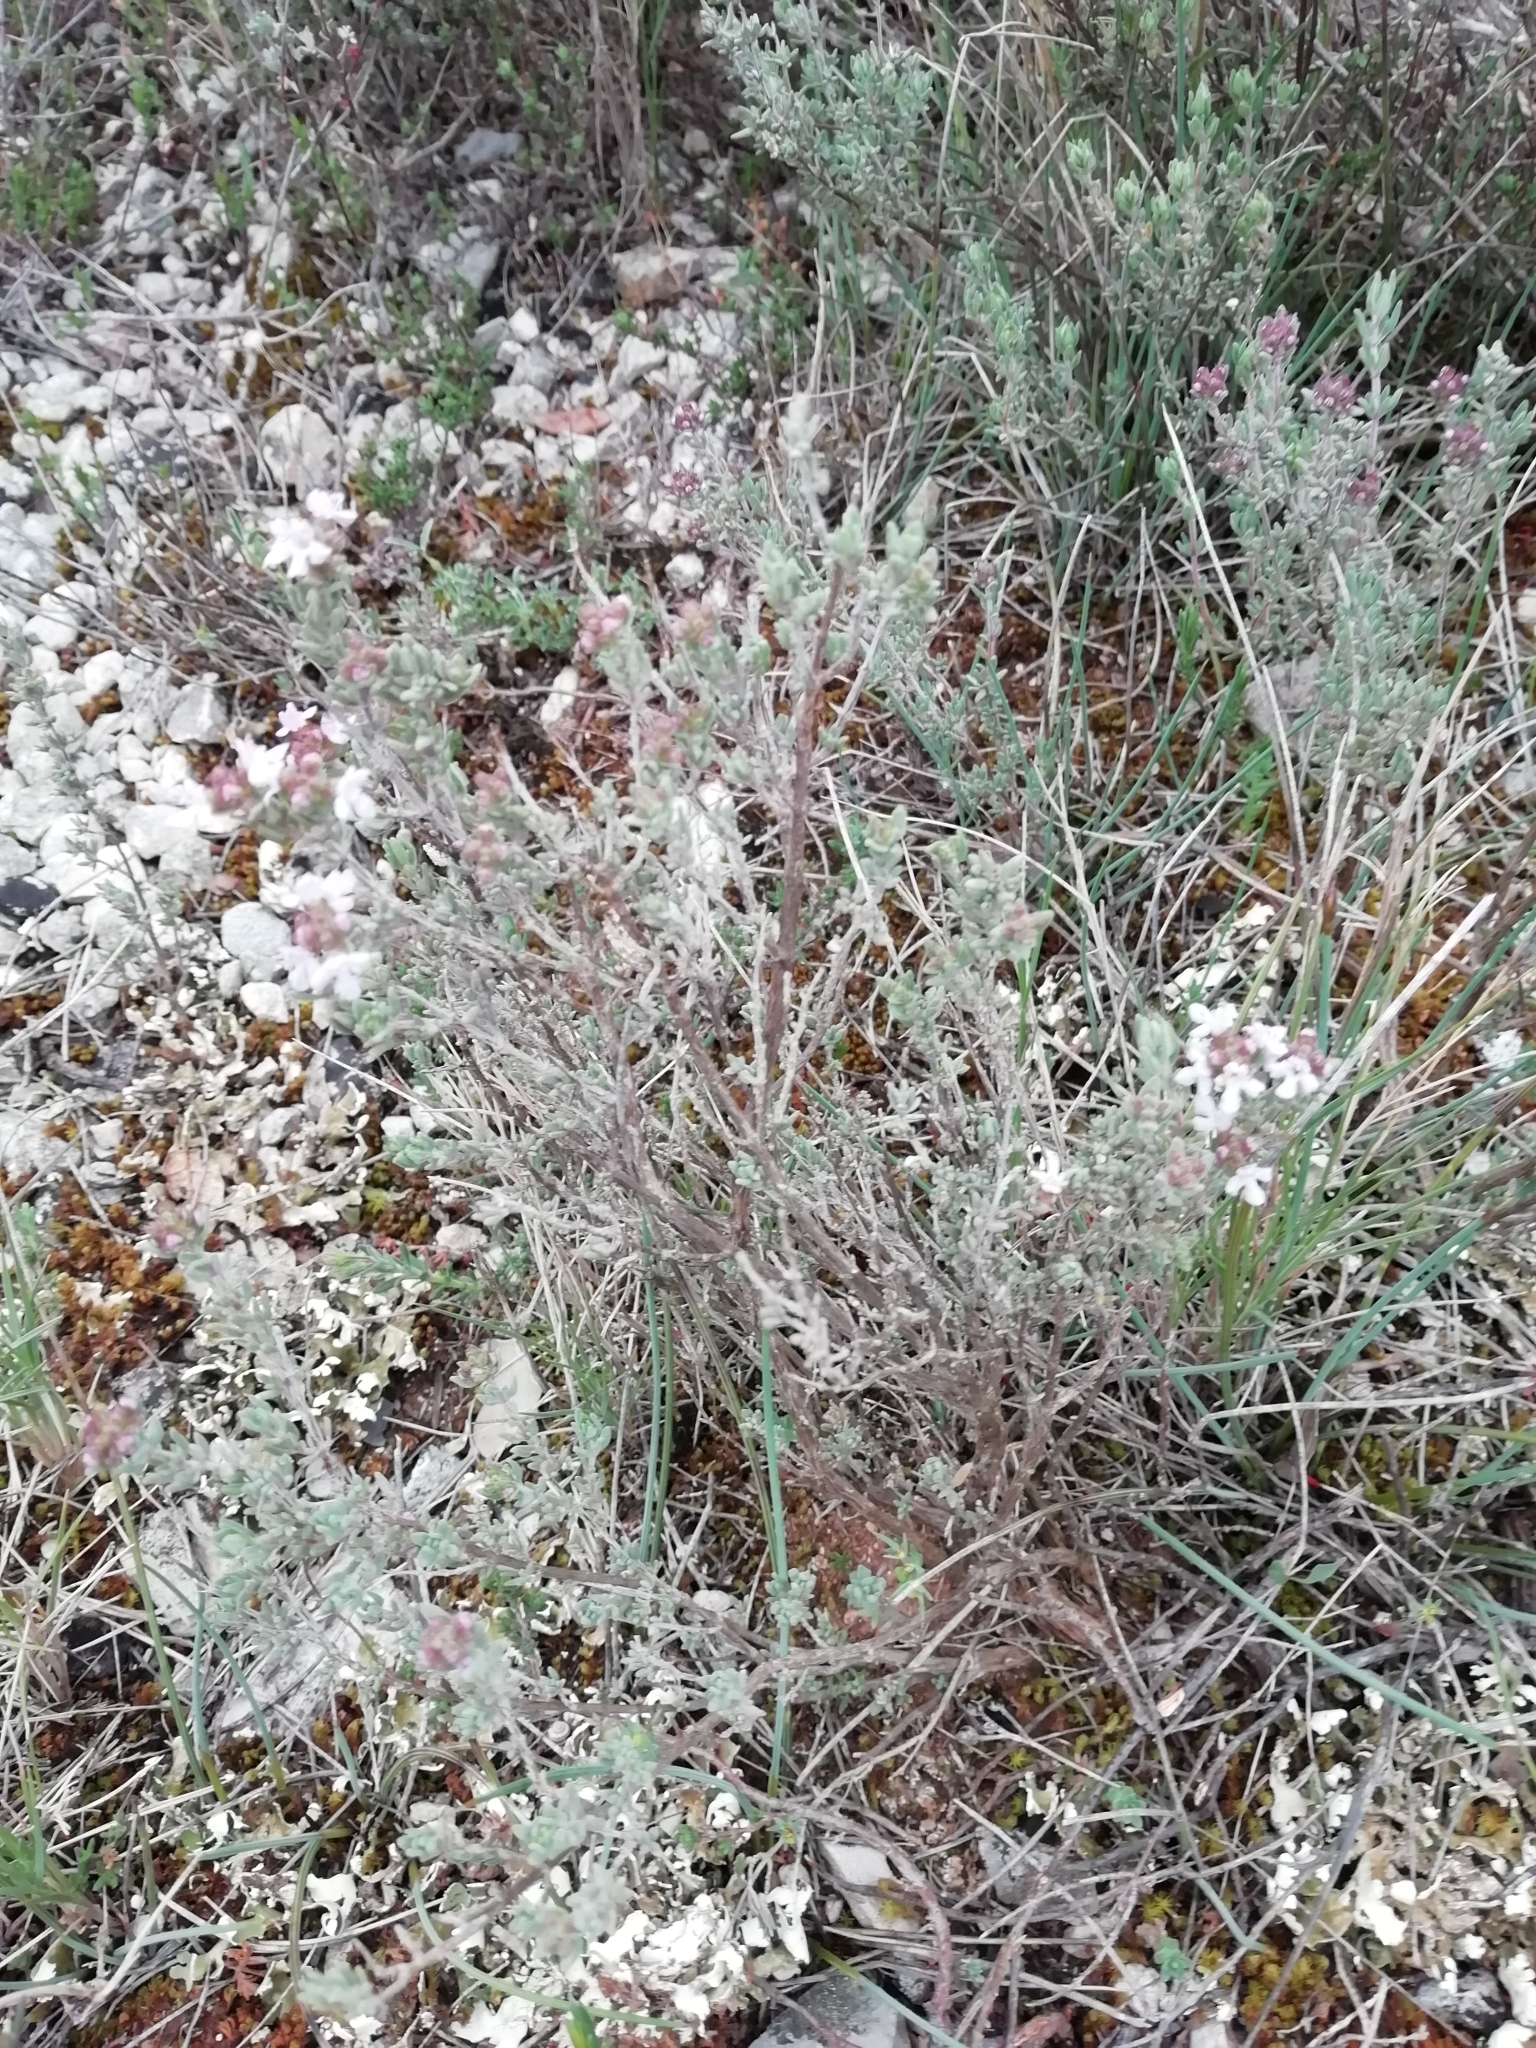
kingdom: Plantae
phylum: Tracheophyta
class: Magnoliopsida
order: Lamiales
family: Lamiaceae
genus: Thymus
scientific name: Thymus vulgaris
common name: Garden thyme
